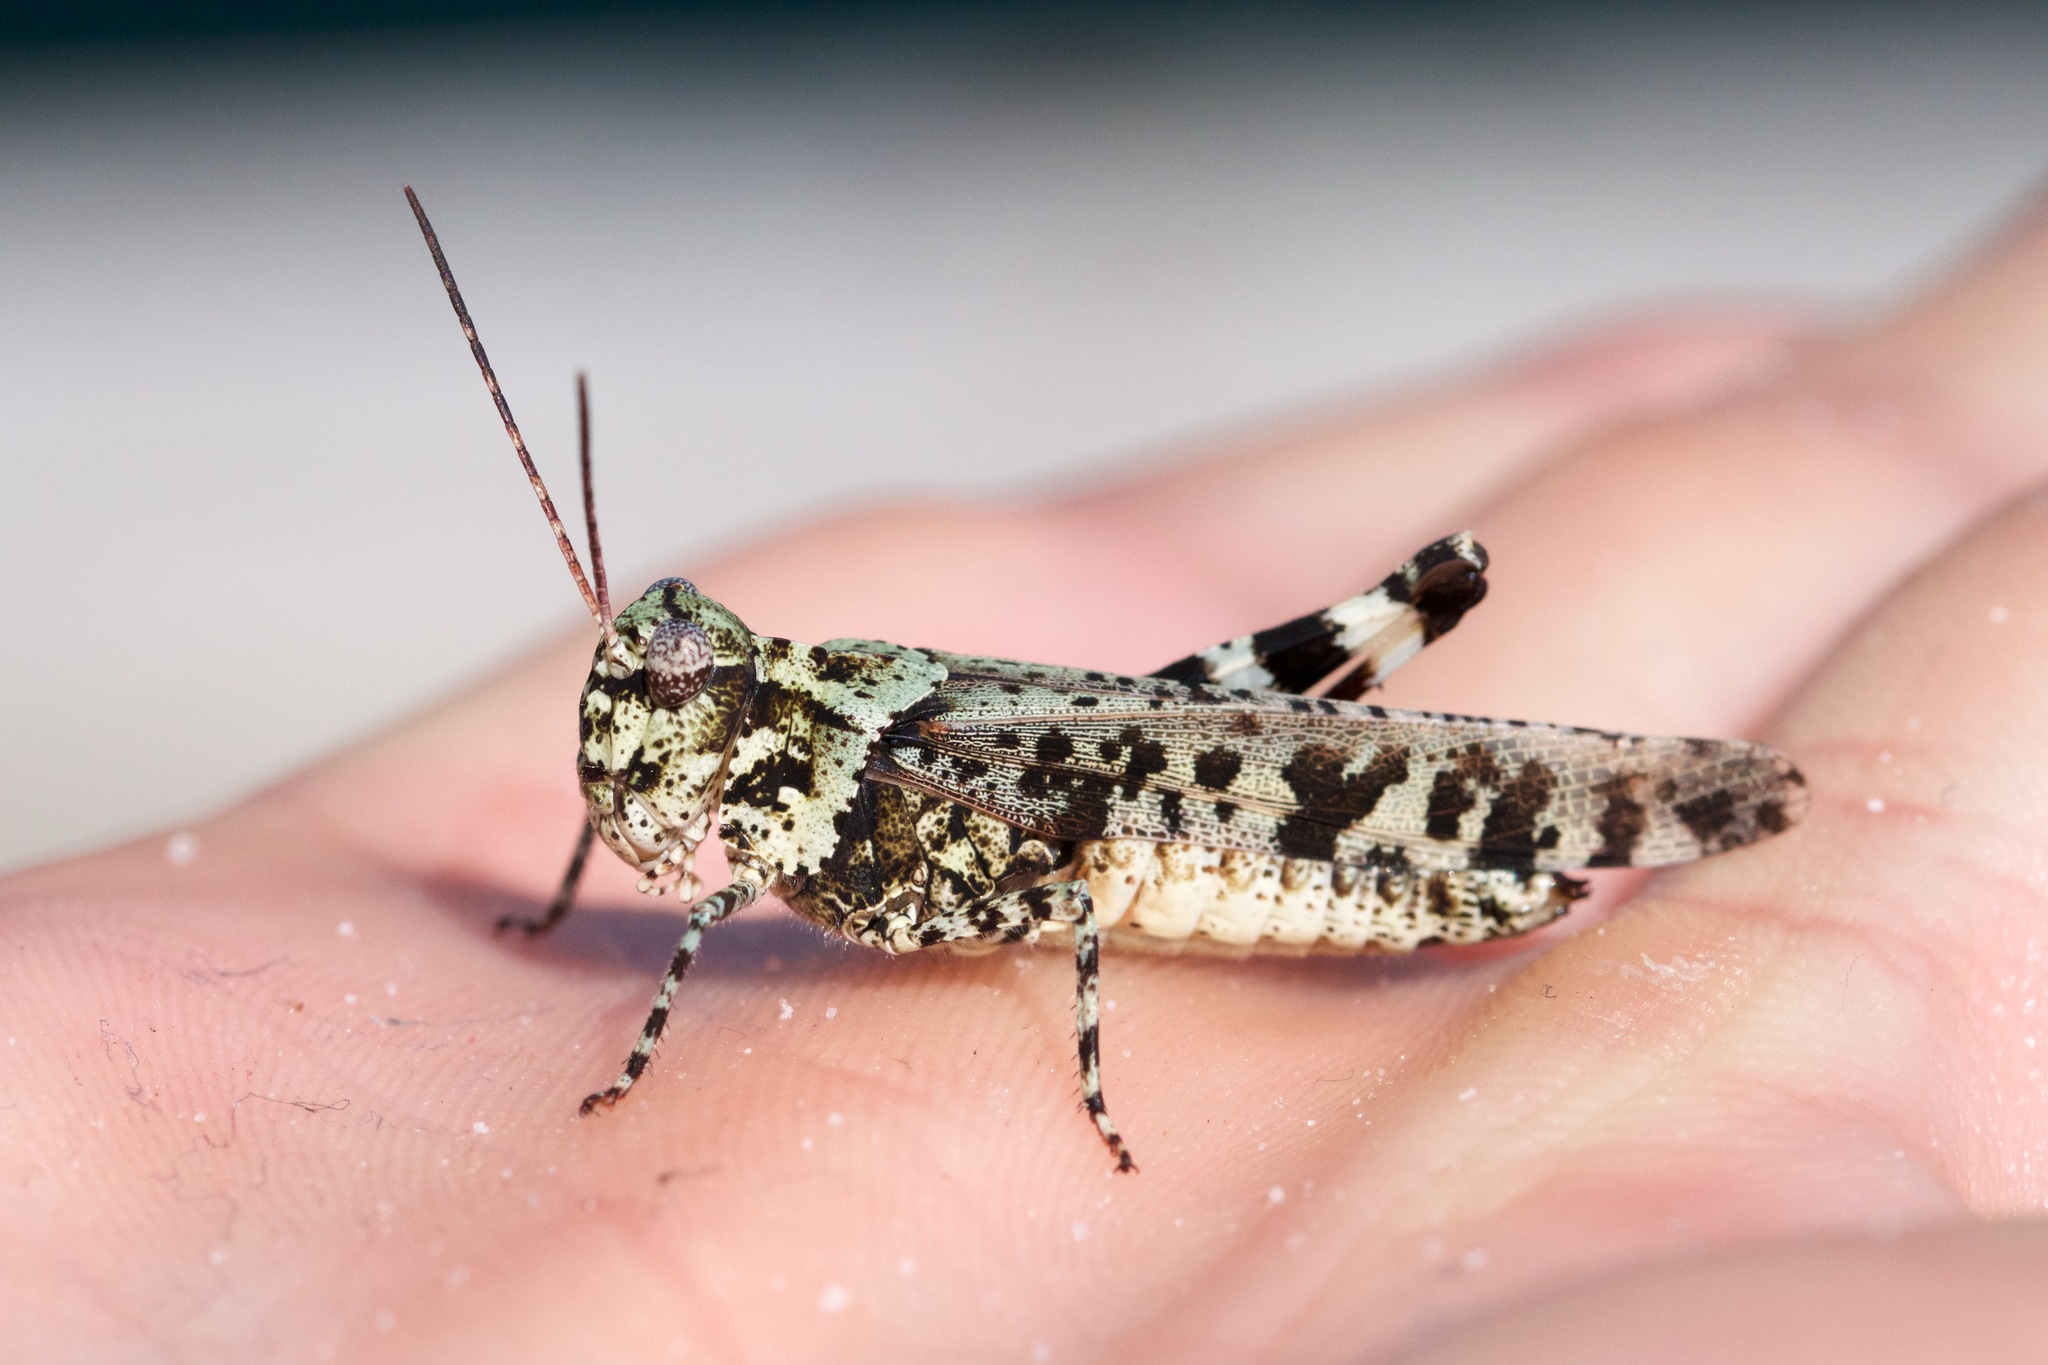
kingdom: Animalia
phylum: Arthropoda
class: Insecta
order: Orthoptera
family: Acrididae
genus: Spharagemon
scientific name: Spharagemon marmoratum
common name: Marbled grasshopper
